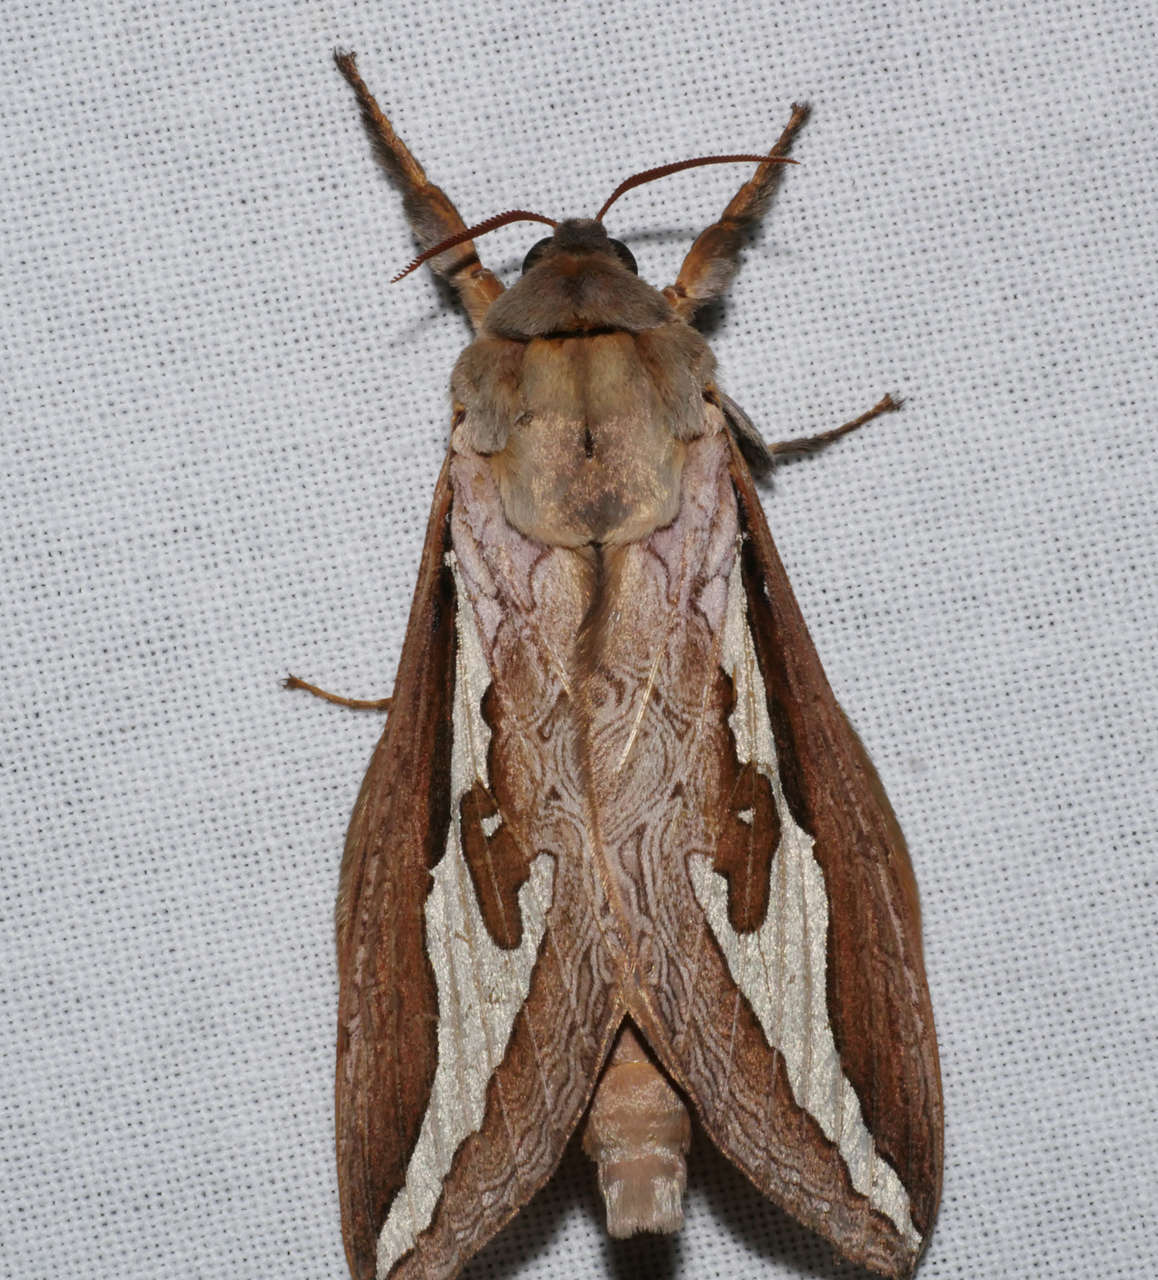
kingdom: Animalia
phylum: Arthropoda
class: Insecta
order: Lepidoptera
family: Hepialidae
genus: Abantiades
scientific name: Abantiades labyrinthicus
